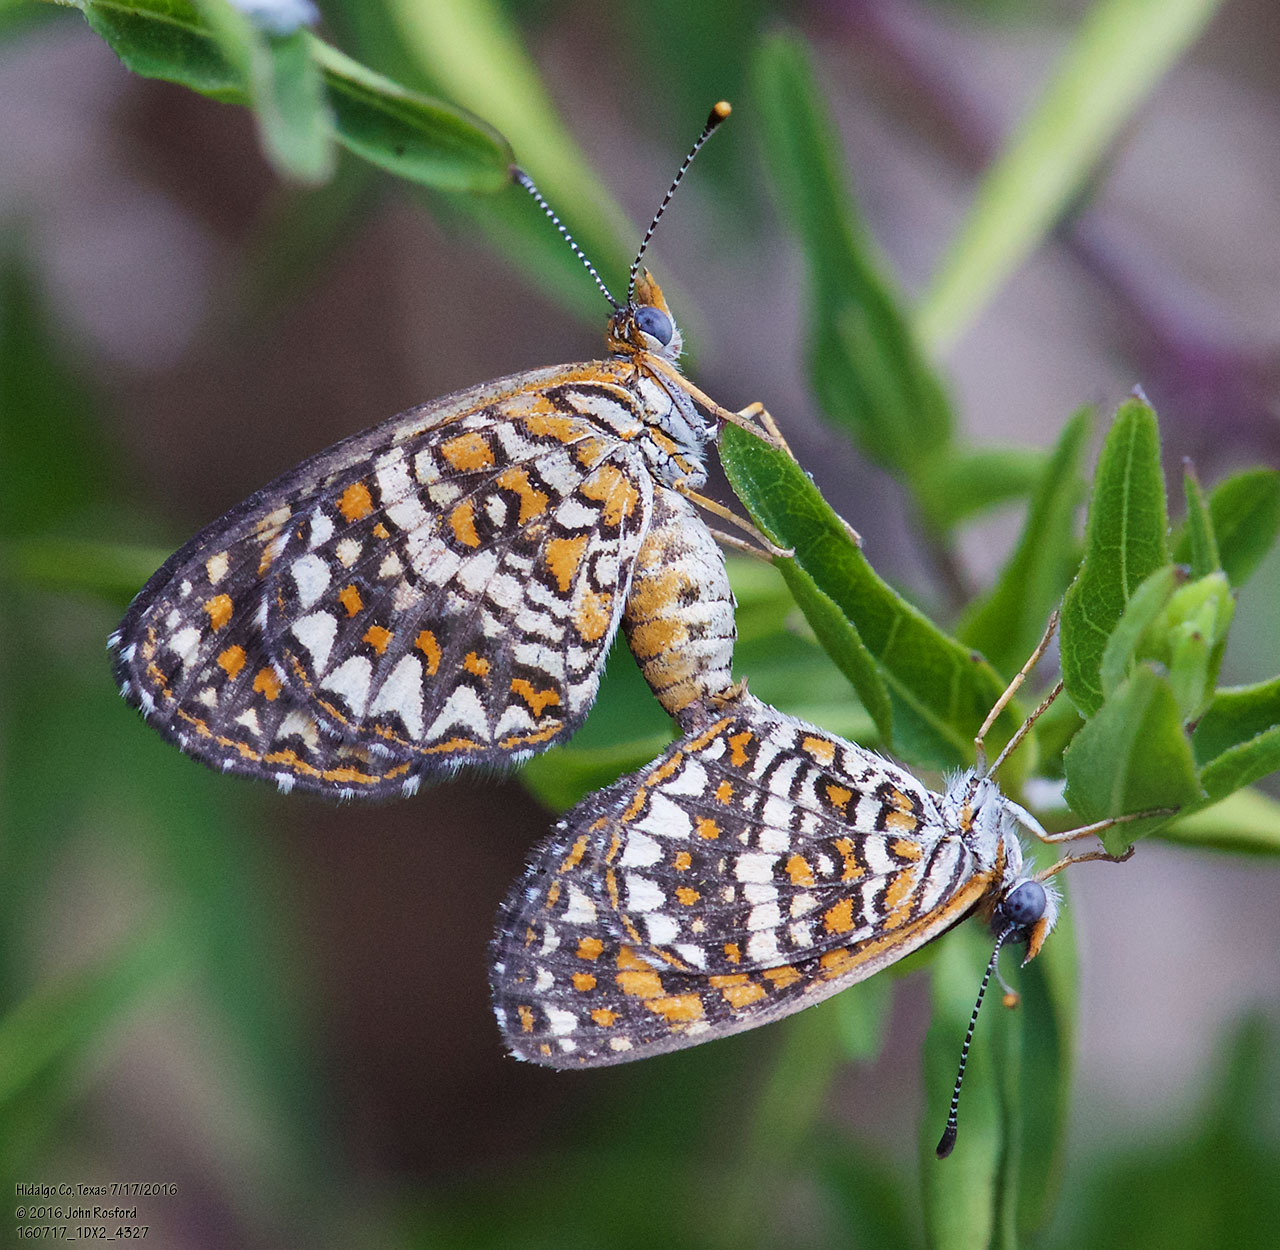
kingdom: Animalia
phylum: Arthropoda
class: Insecta
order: Lepidoptera
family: Nymphalidae
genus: Texola
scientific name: Texola elada
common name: Elada checkerspot
